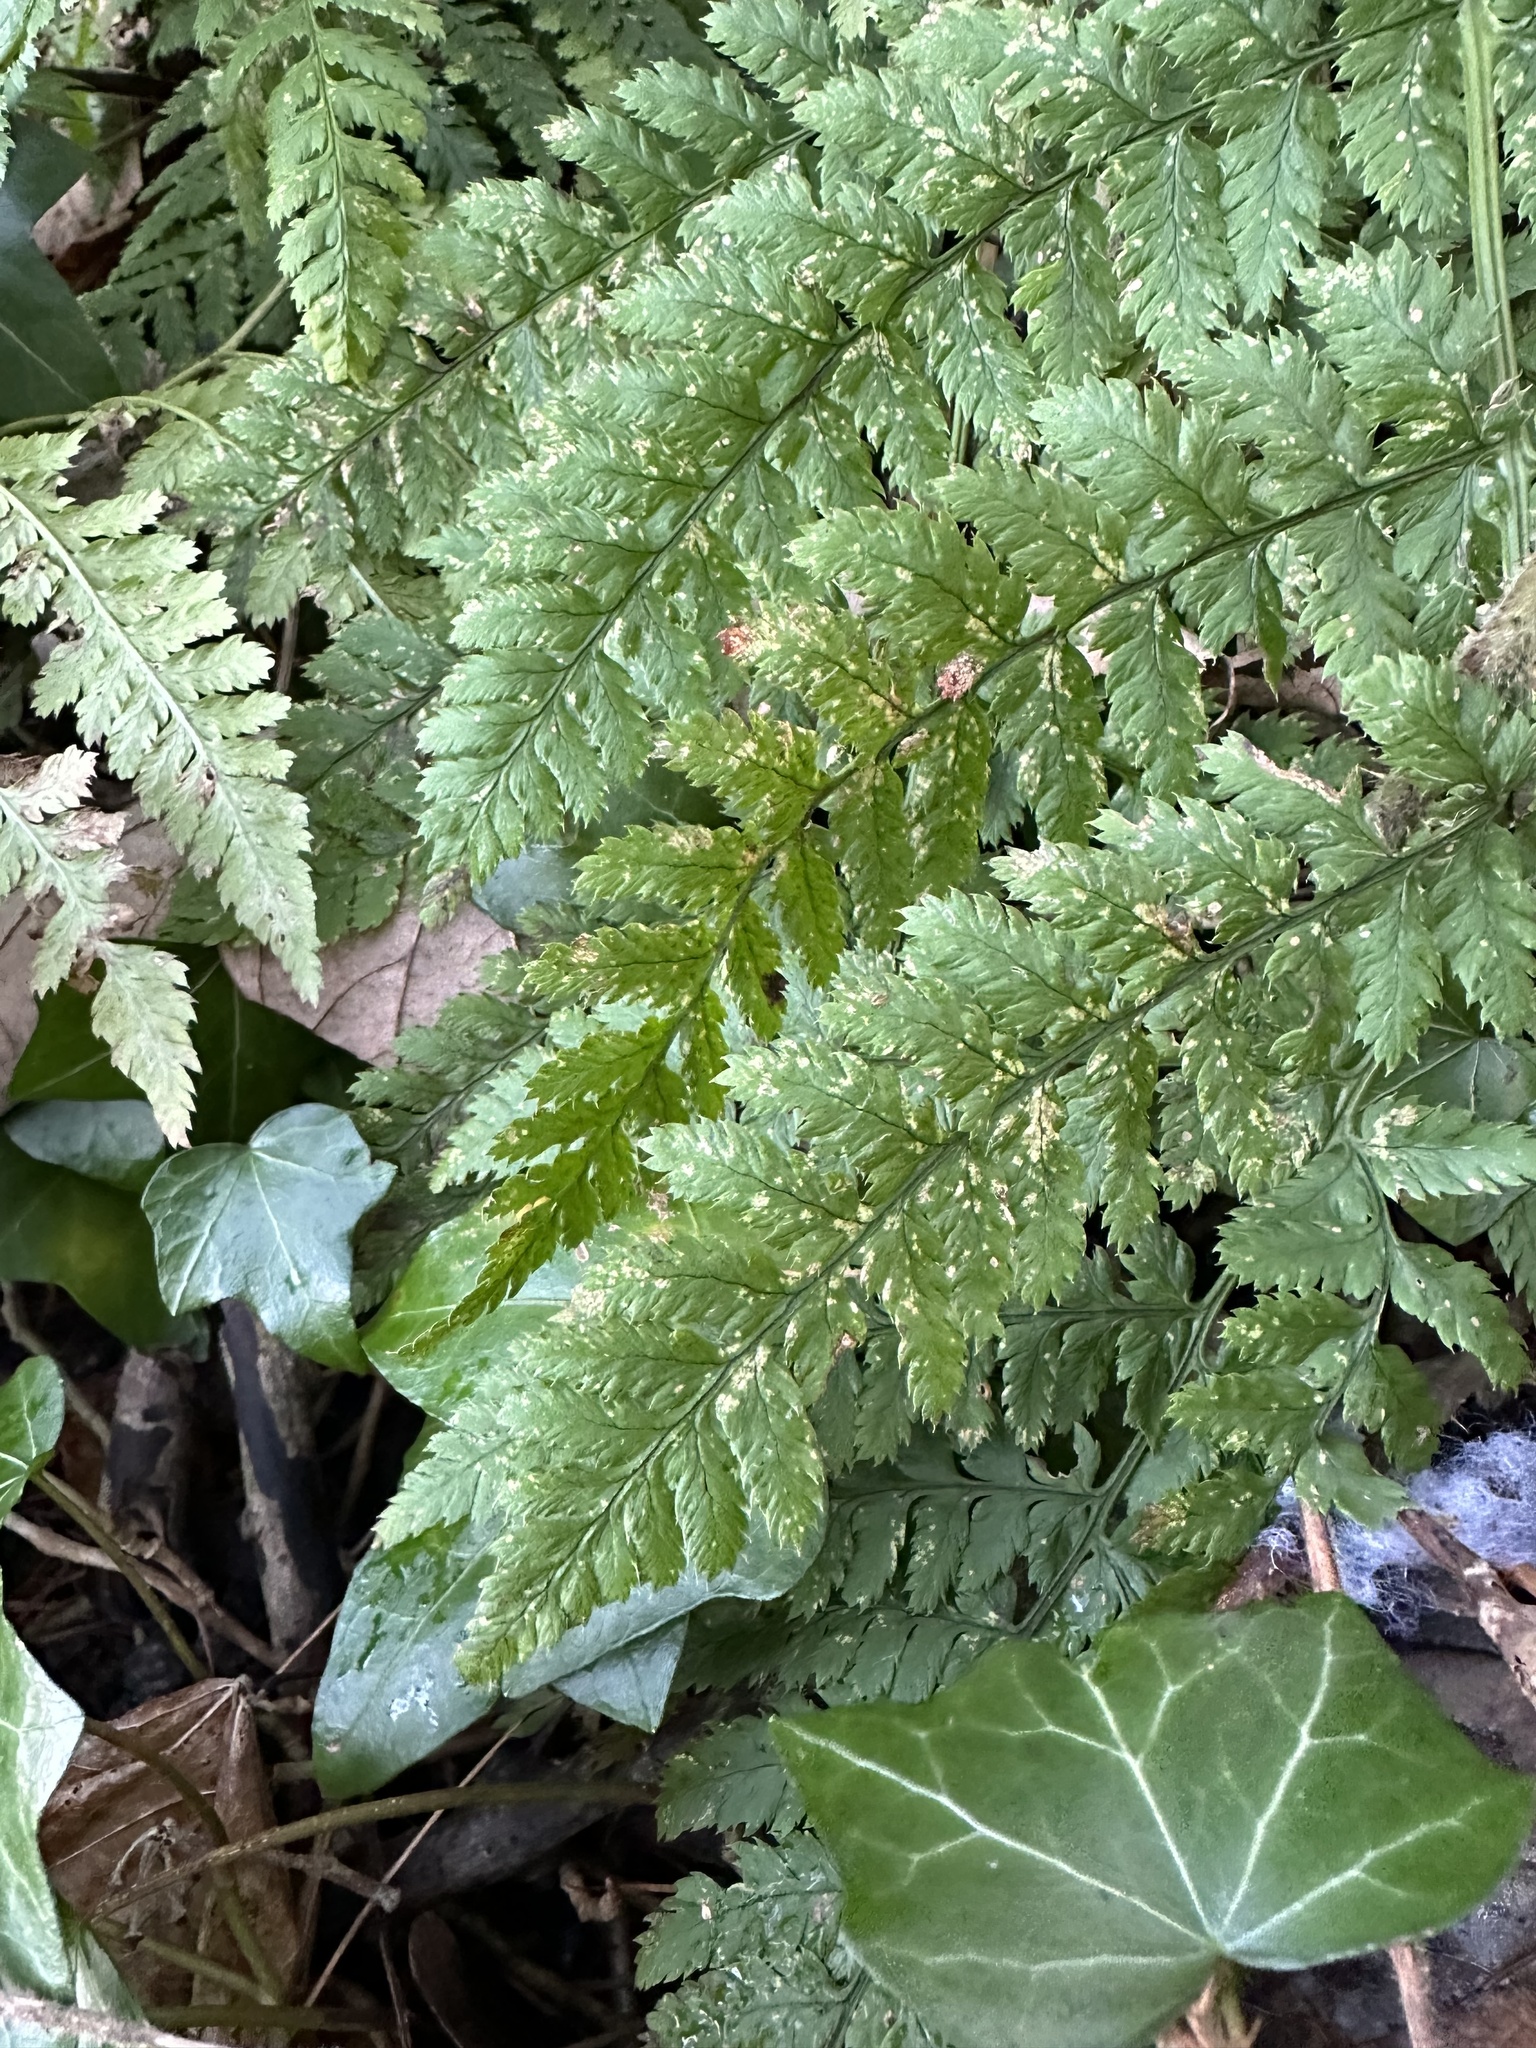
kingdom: Plantae
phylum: Tracheophyta
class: Polypodiopsida
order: Polypodiales
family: Dryopteridaceae
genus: Dryopteris
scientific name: Dryopteris dilatata
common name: Broad buckler-fern
